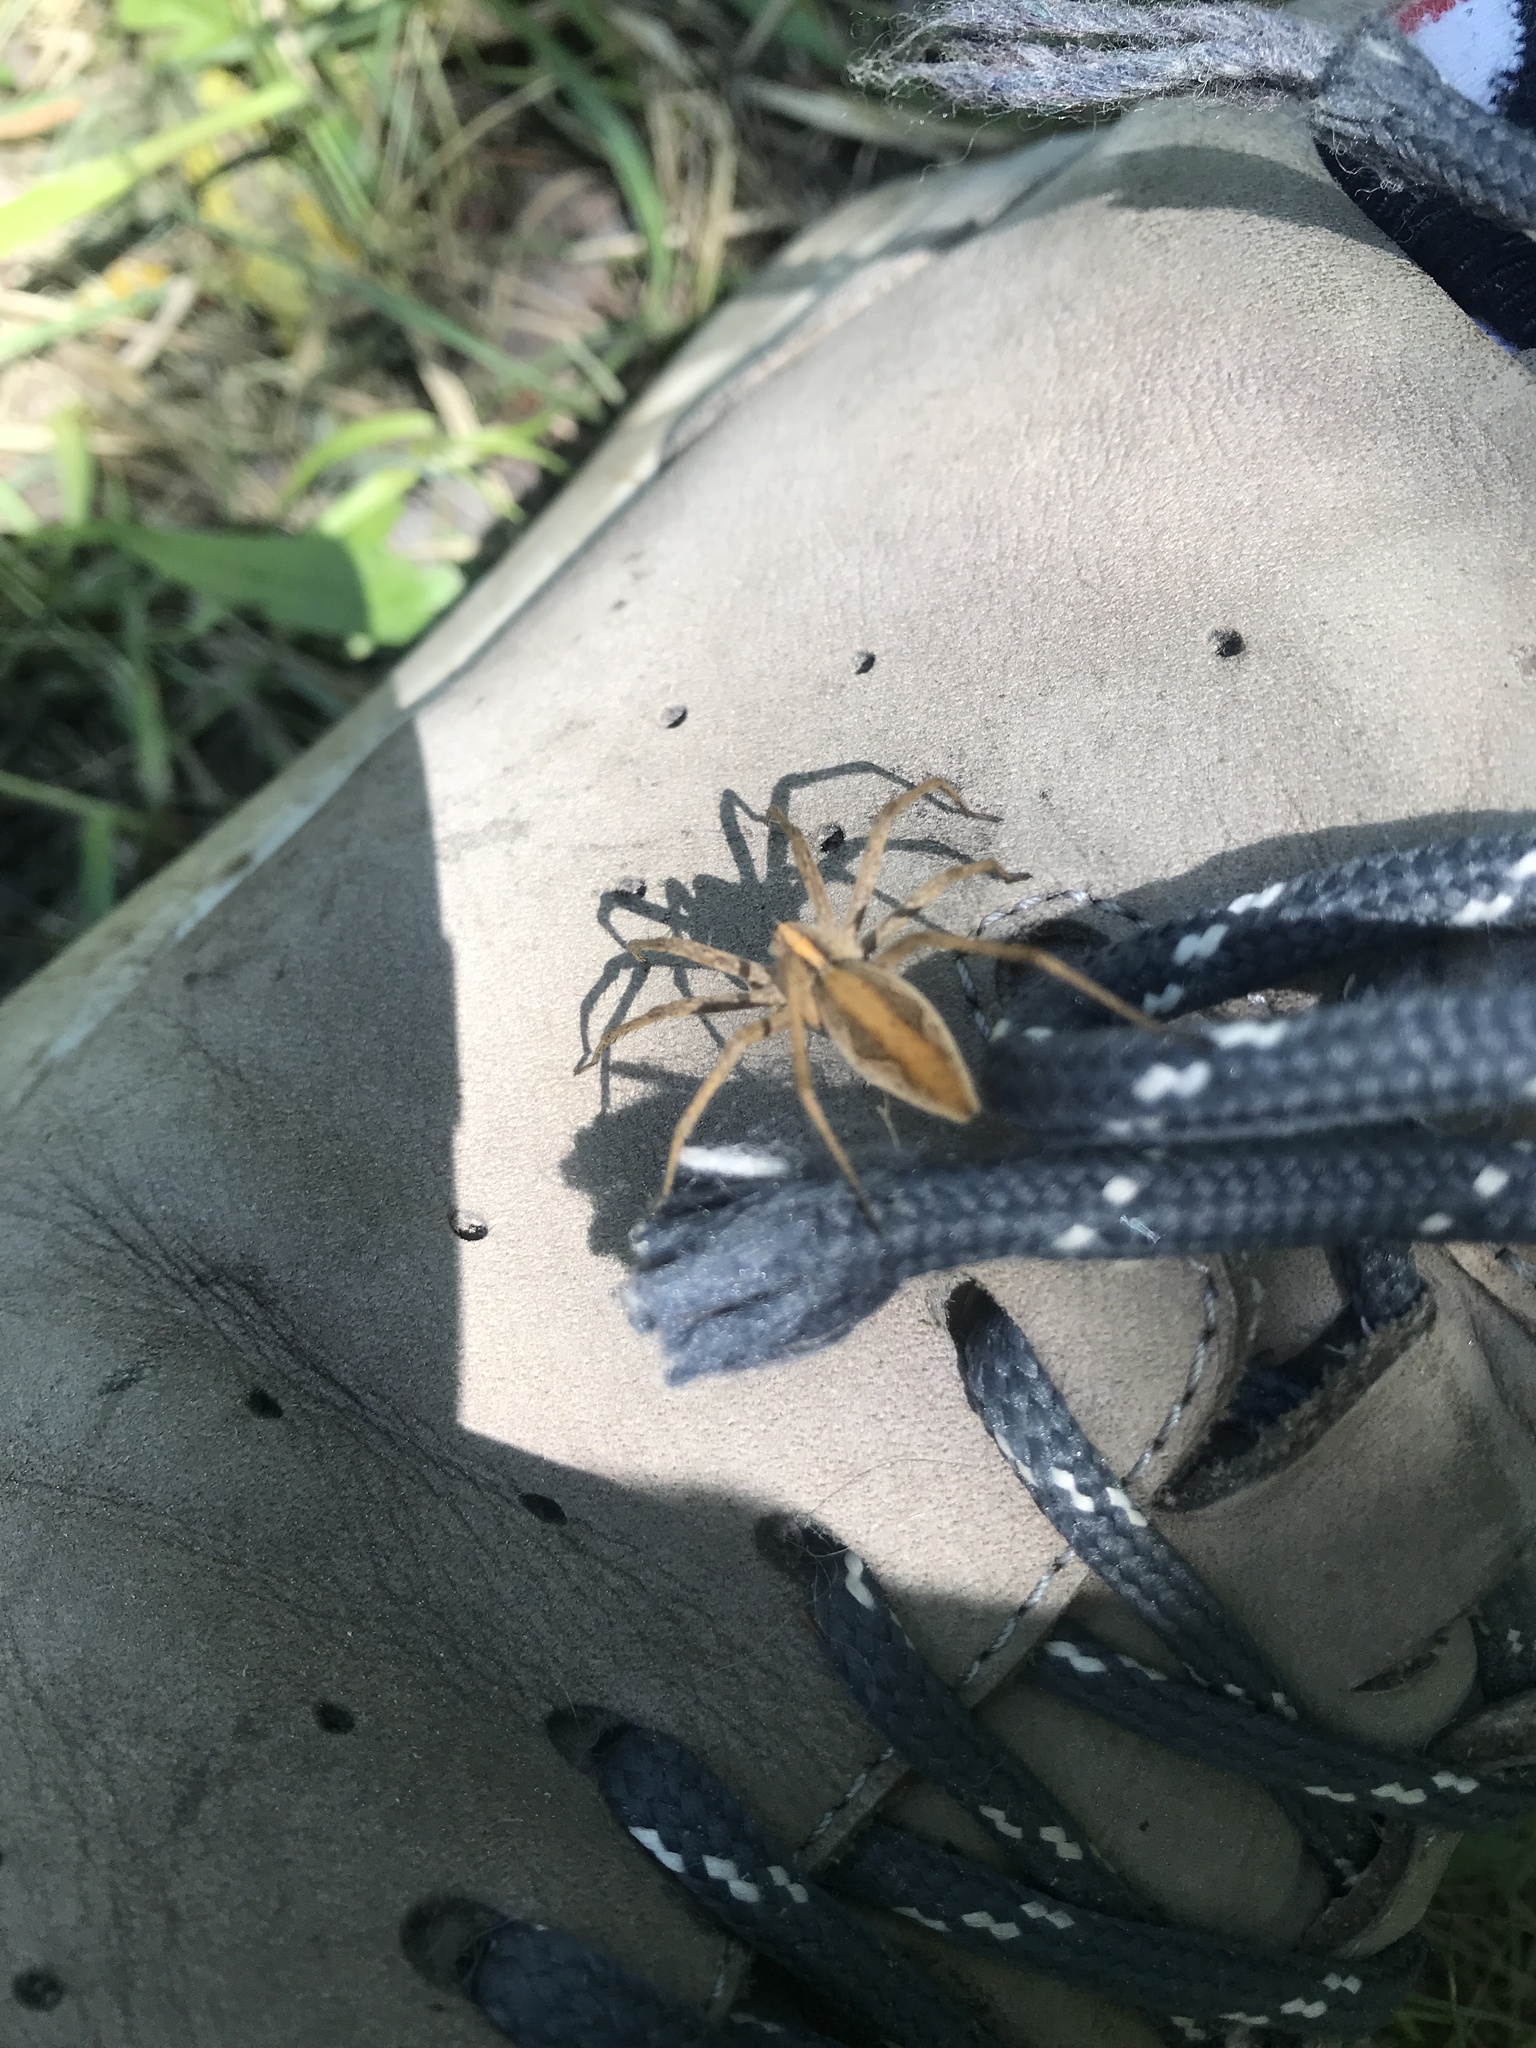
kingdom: Animalia
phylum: Arthropoda
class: Arachnida
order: Araneae
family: Pisauridae
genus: Pisaura
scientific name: Pisaura mirabilis
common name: Tent spider
